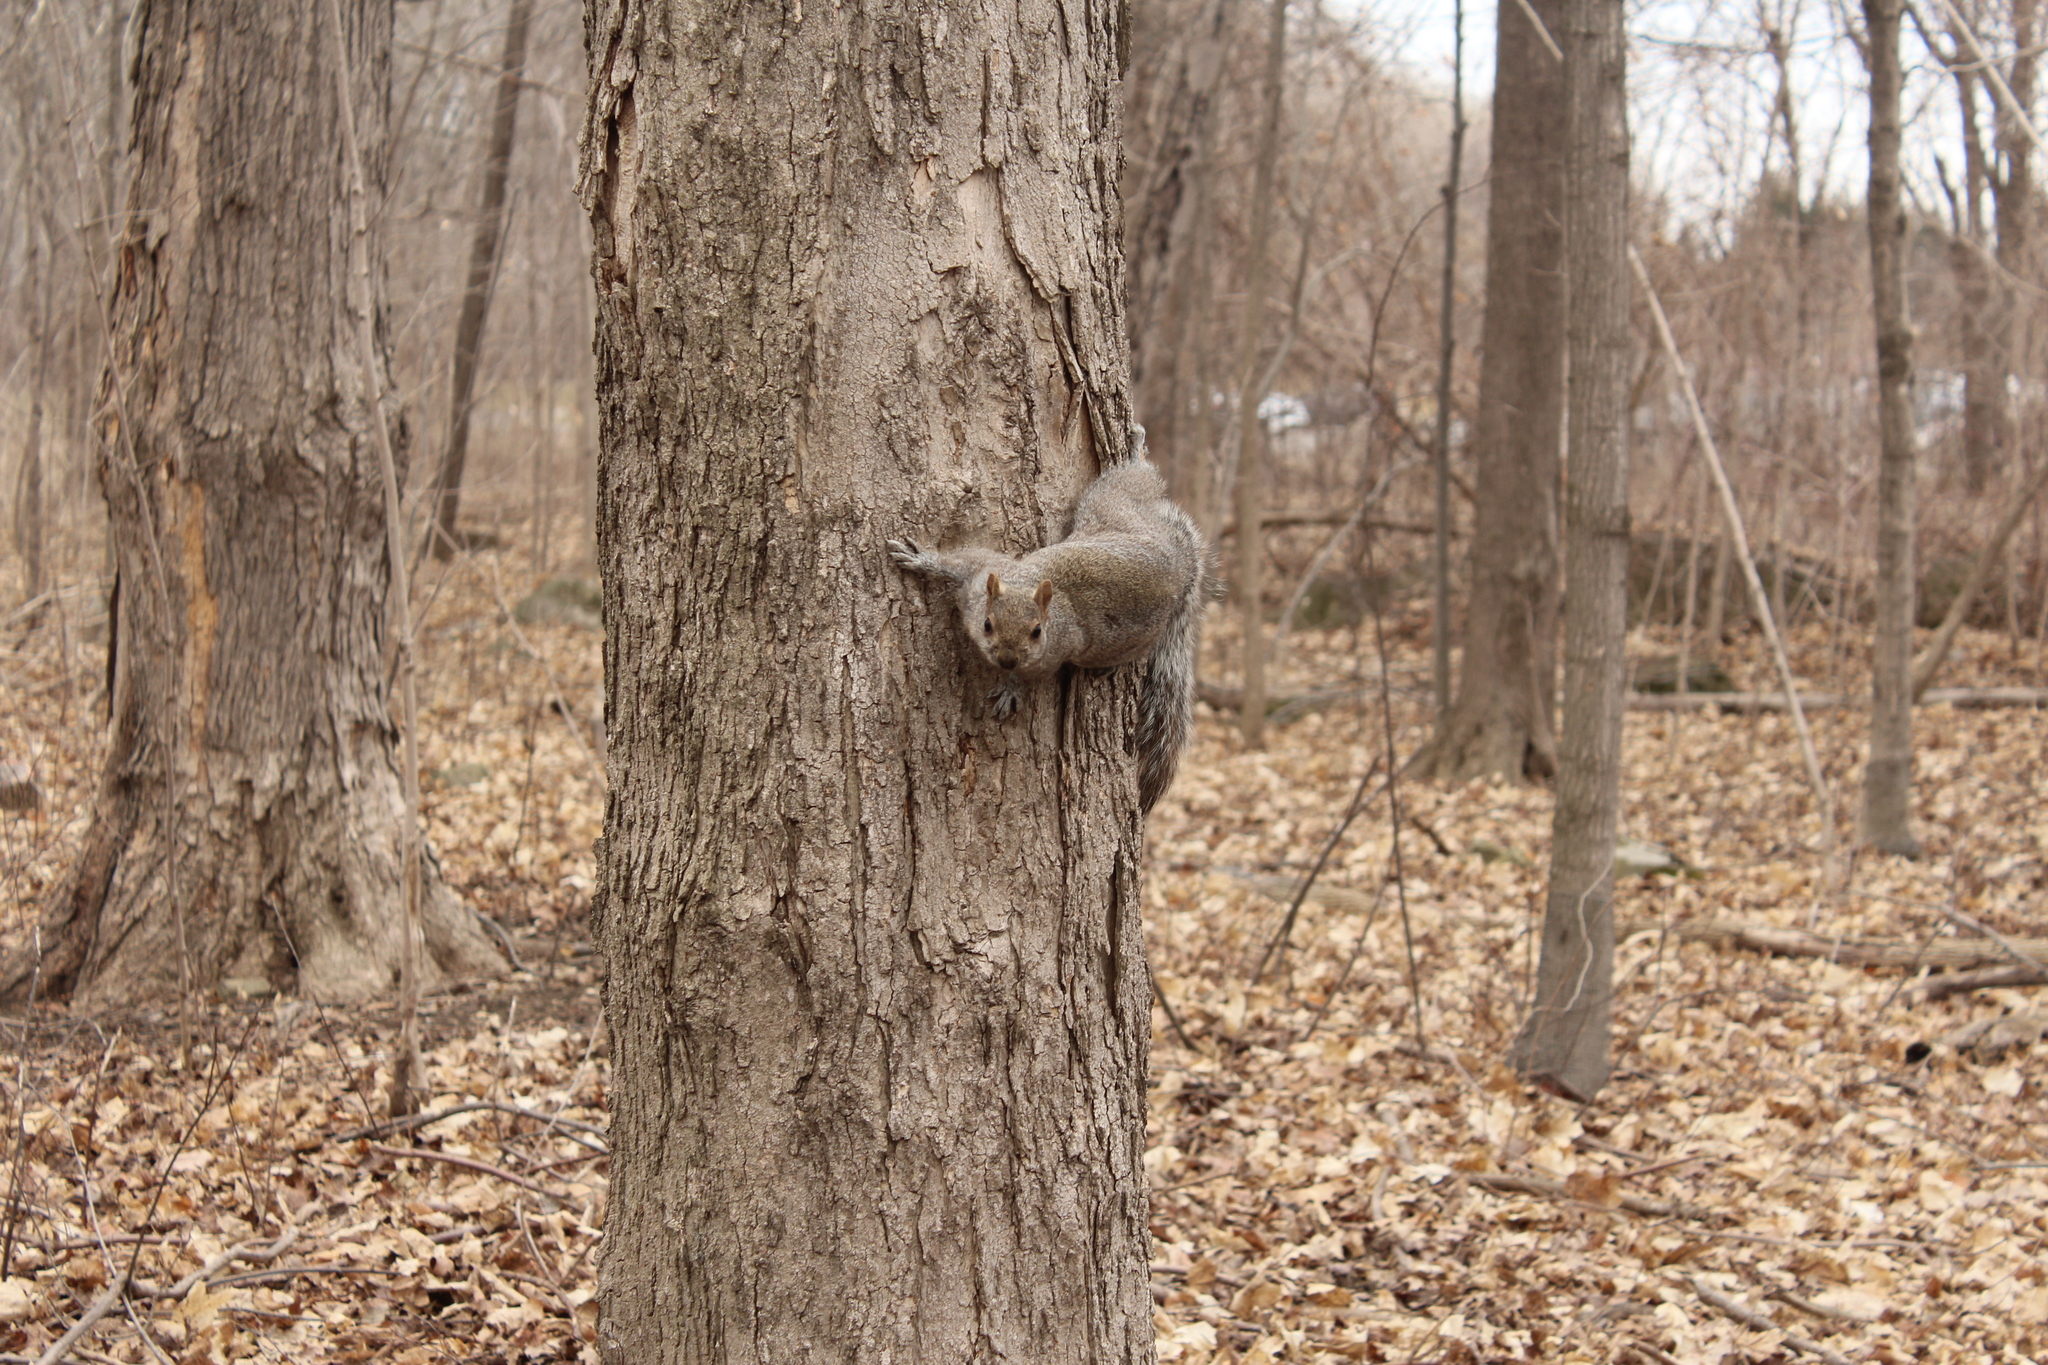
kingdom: Animalia
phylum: Chordata
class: Mammalia
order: Rodentia
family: Sciuridae
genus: Sciurus
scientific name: Sciurus carolinensis
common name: Eastern gray squirrel
